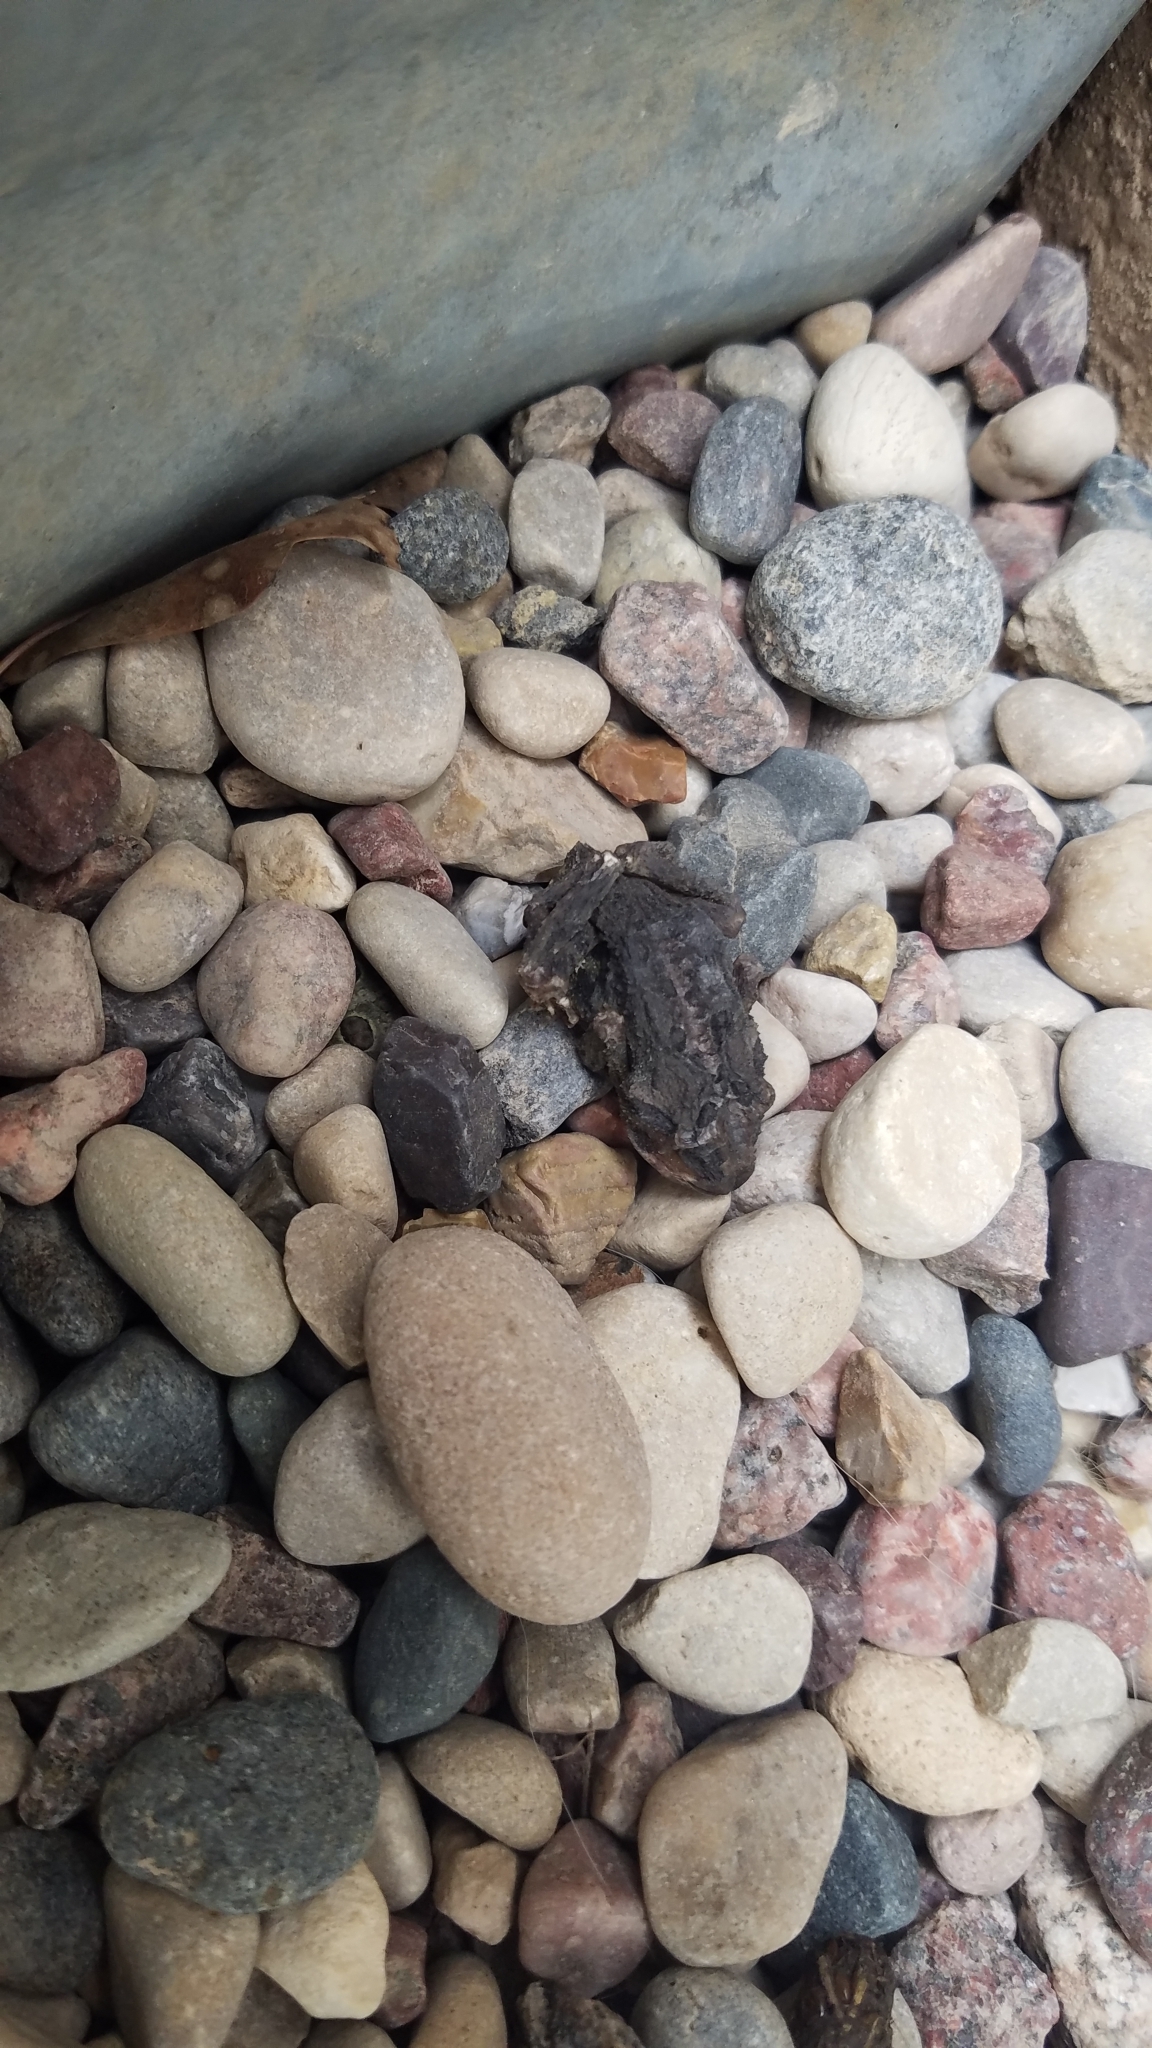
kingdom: Animalia
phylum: Chordata
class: Amphibia
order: Anura
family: Bufonidae
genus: Anaxyrus
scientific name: Anaxyrus americanus
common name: American toad
